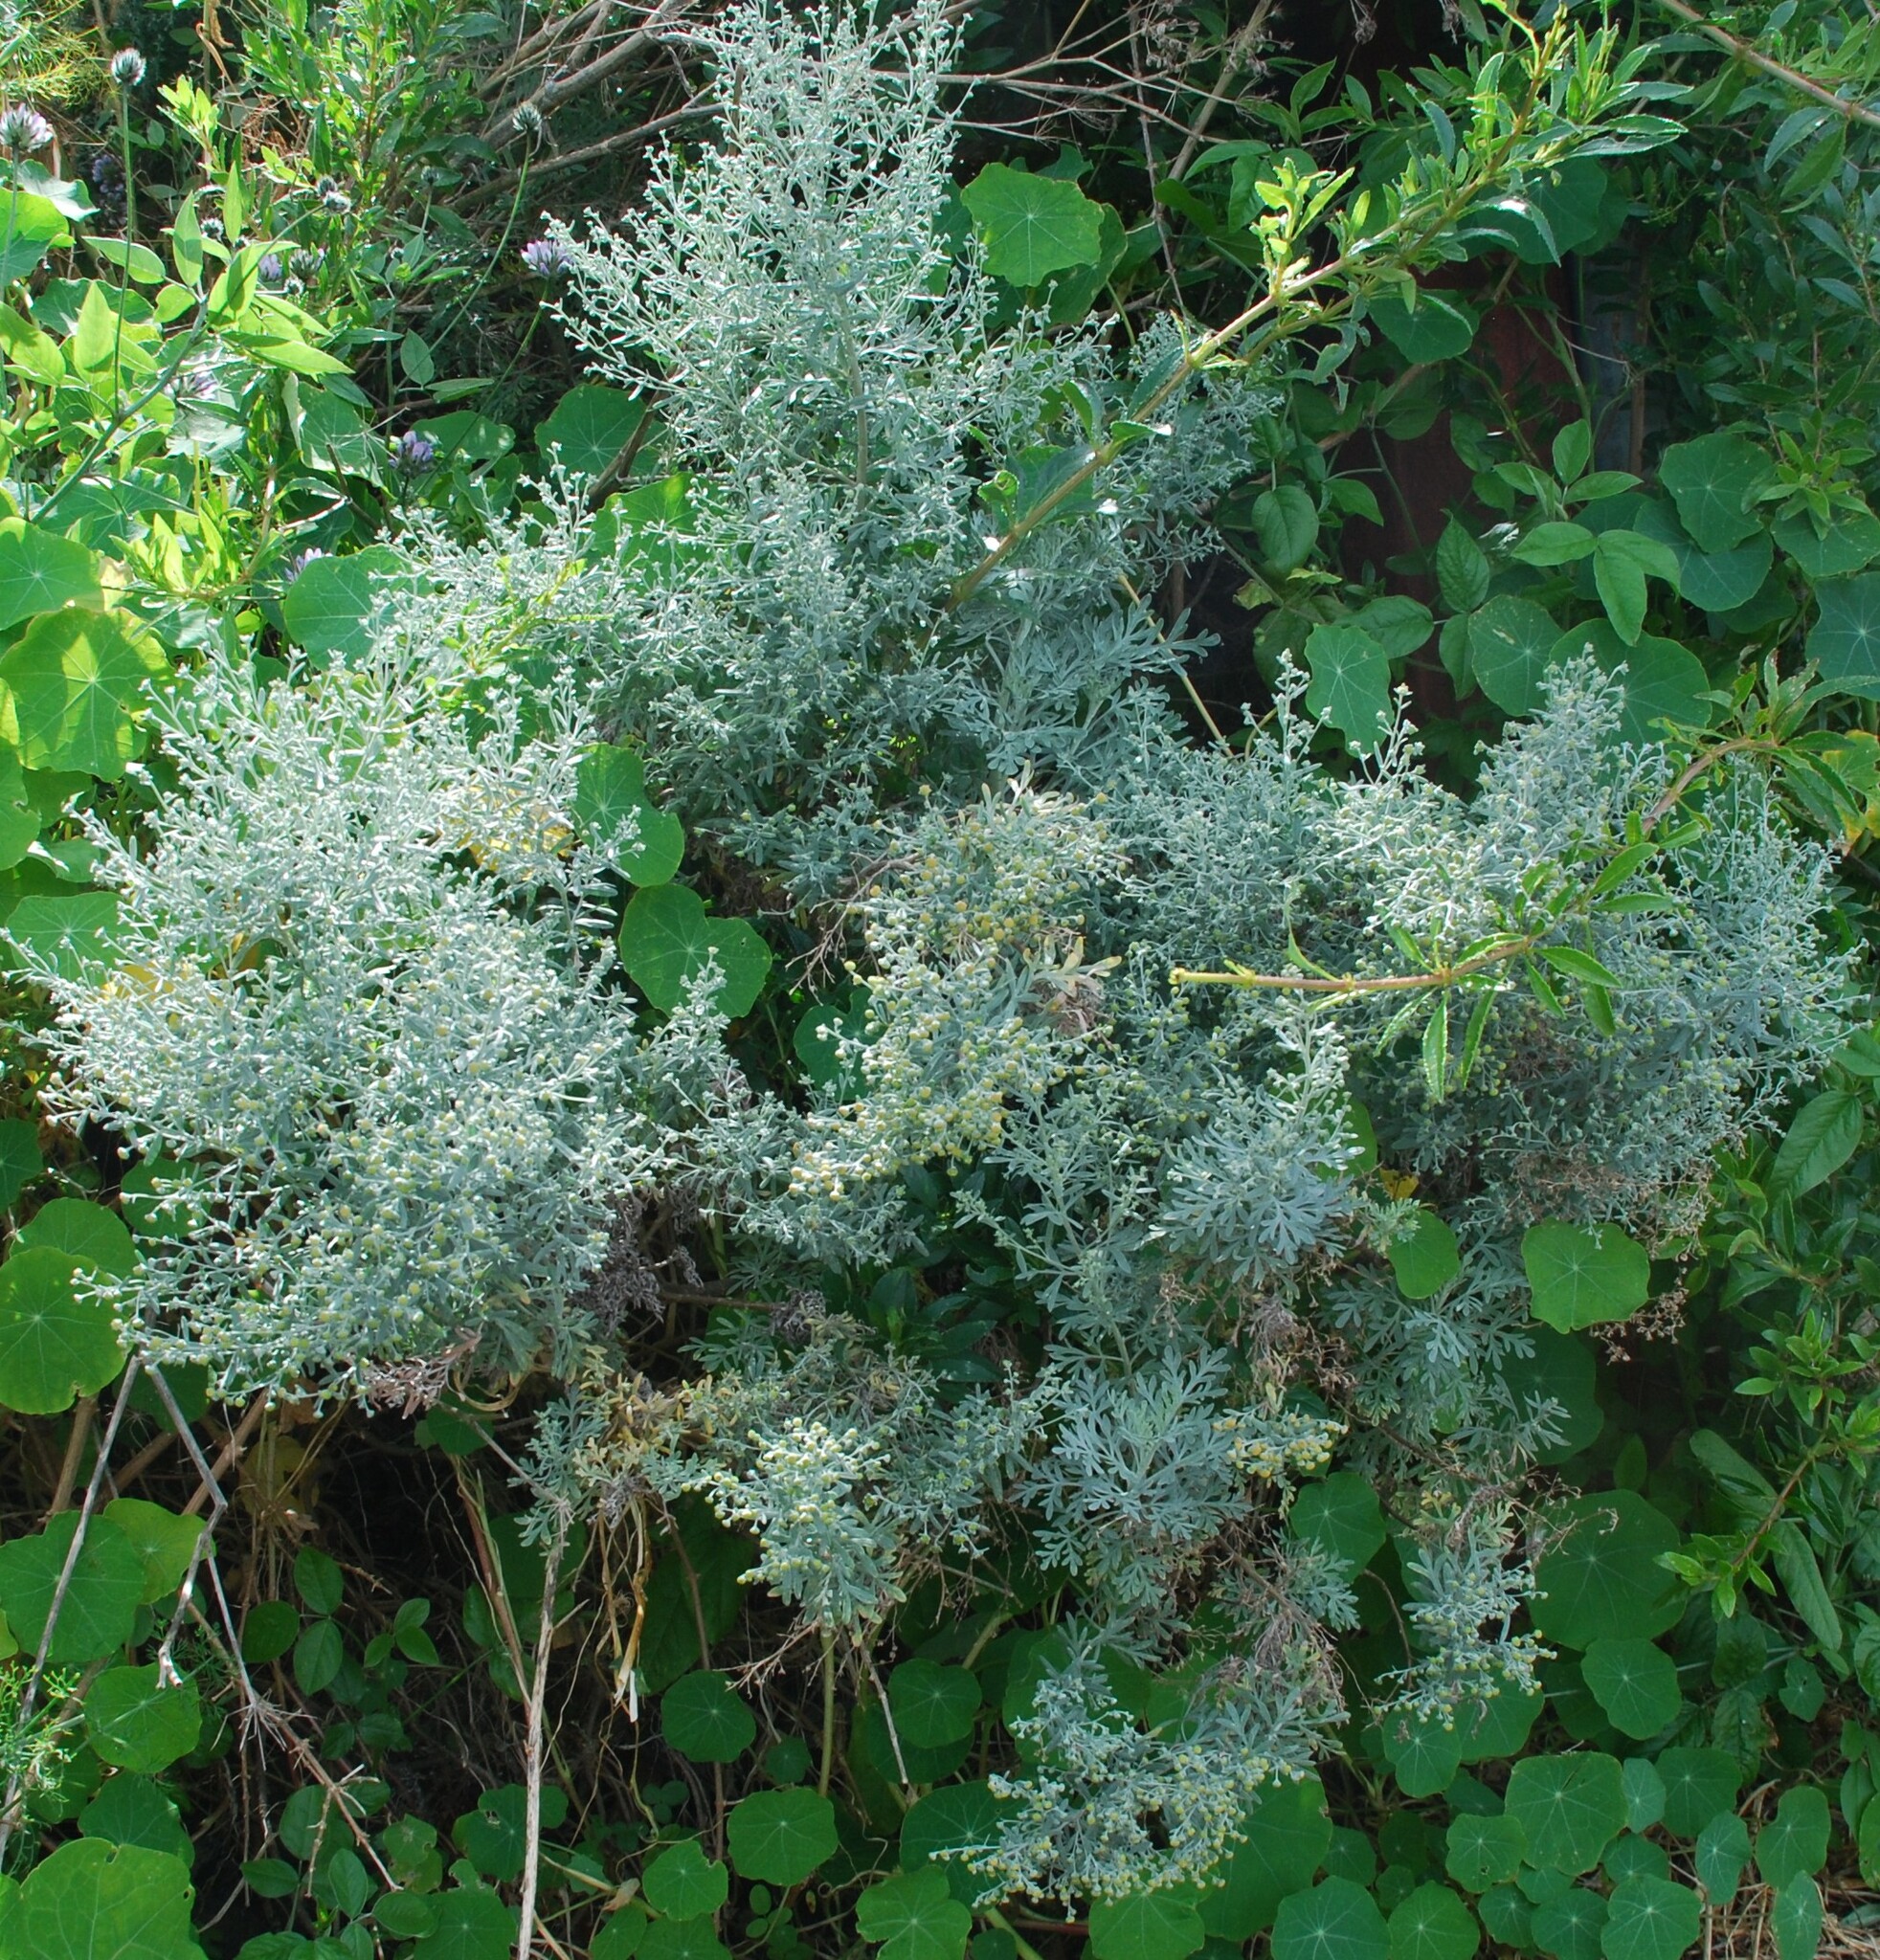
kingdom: Plantae
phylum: Tracheophyta
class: Magnoliopsida
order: Asterales
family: Asteraceae
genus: Artemisia
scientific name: Artemisia thuscula
